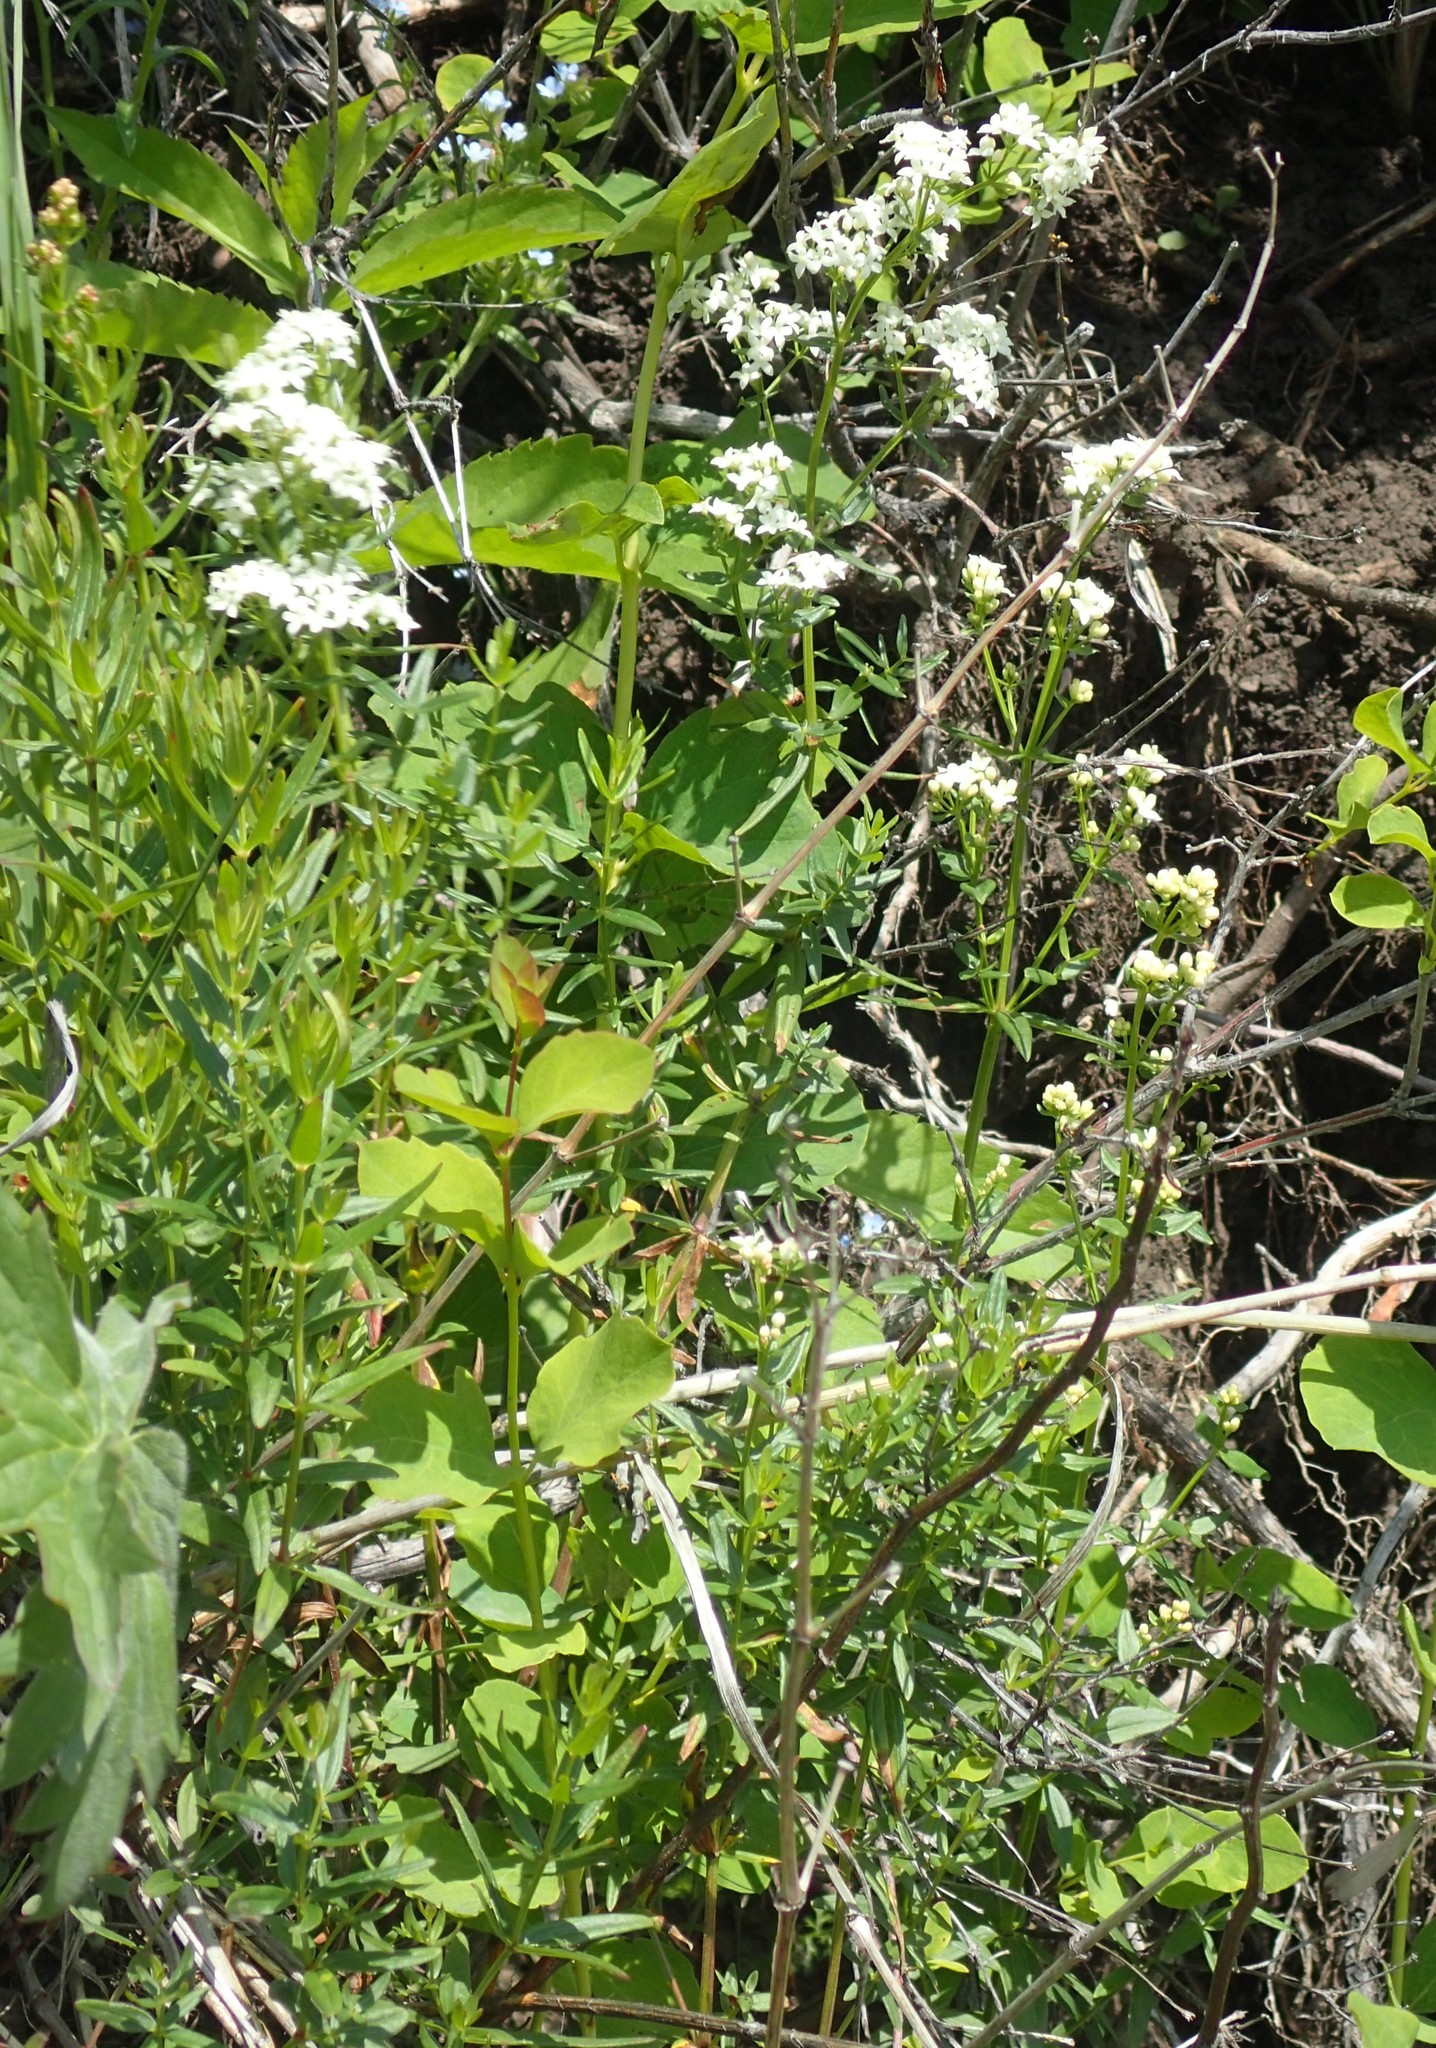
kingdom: Plantae
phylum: Tracheophyta
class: Magnoliopsida
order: Gentianales
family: Rubiaceae
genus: Galium
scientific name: Galium boreale
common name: Northern bedstraw
